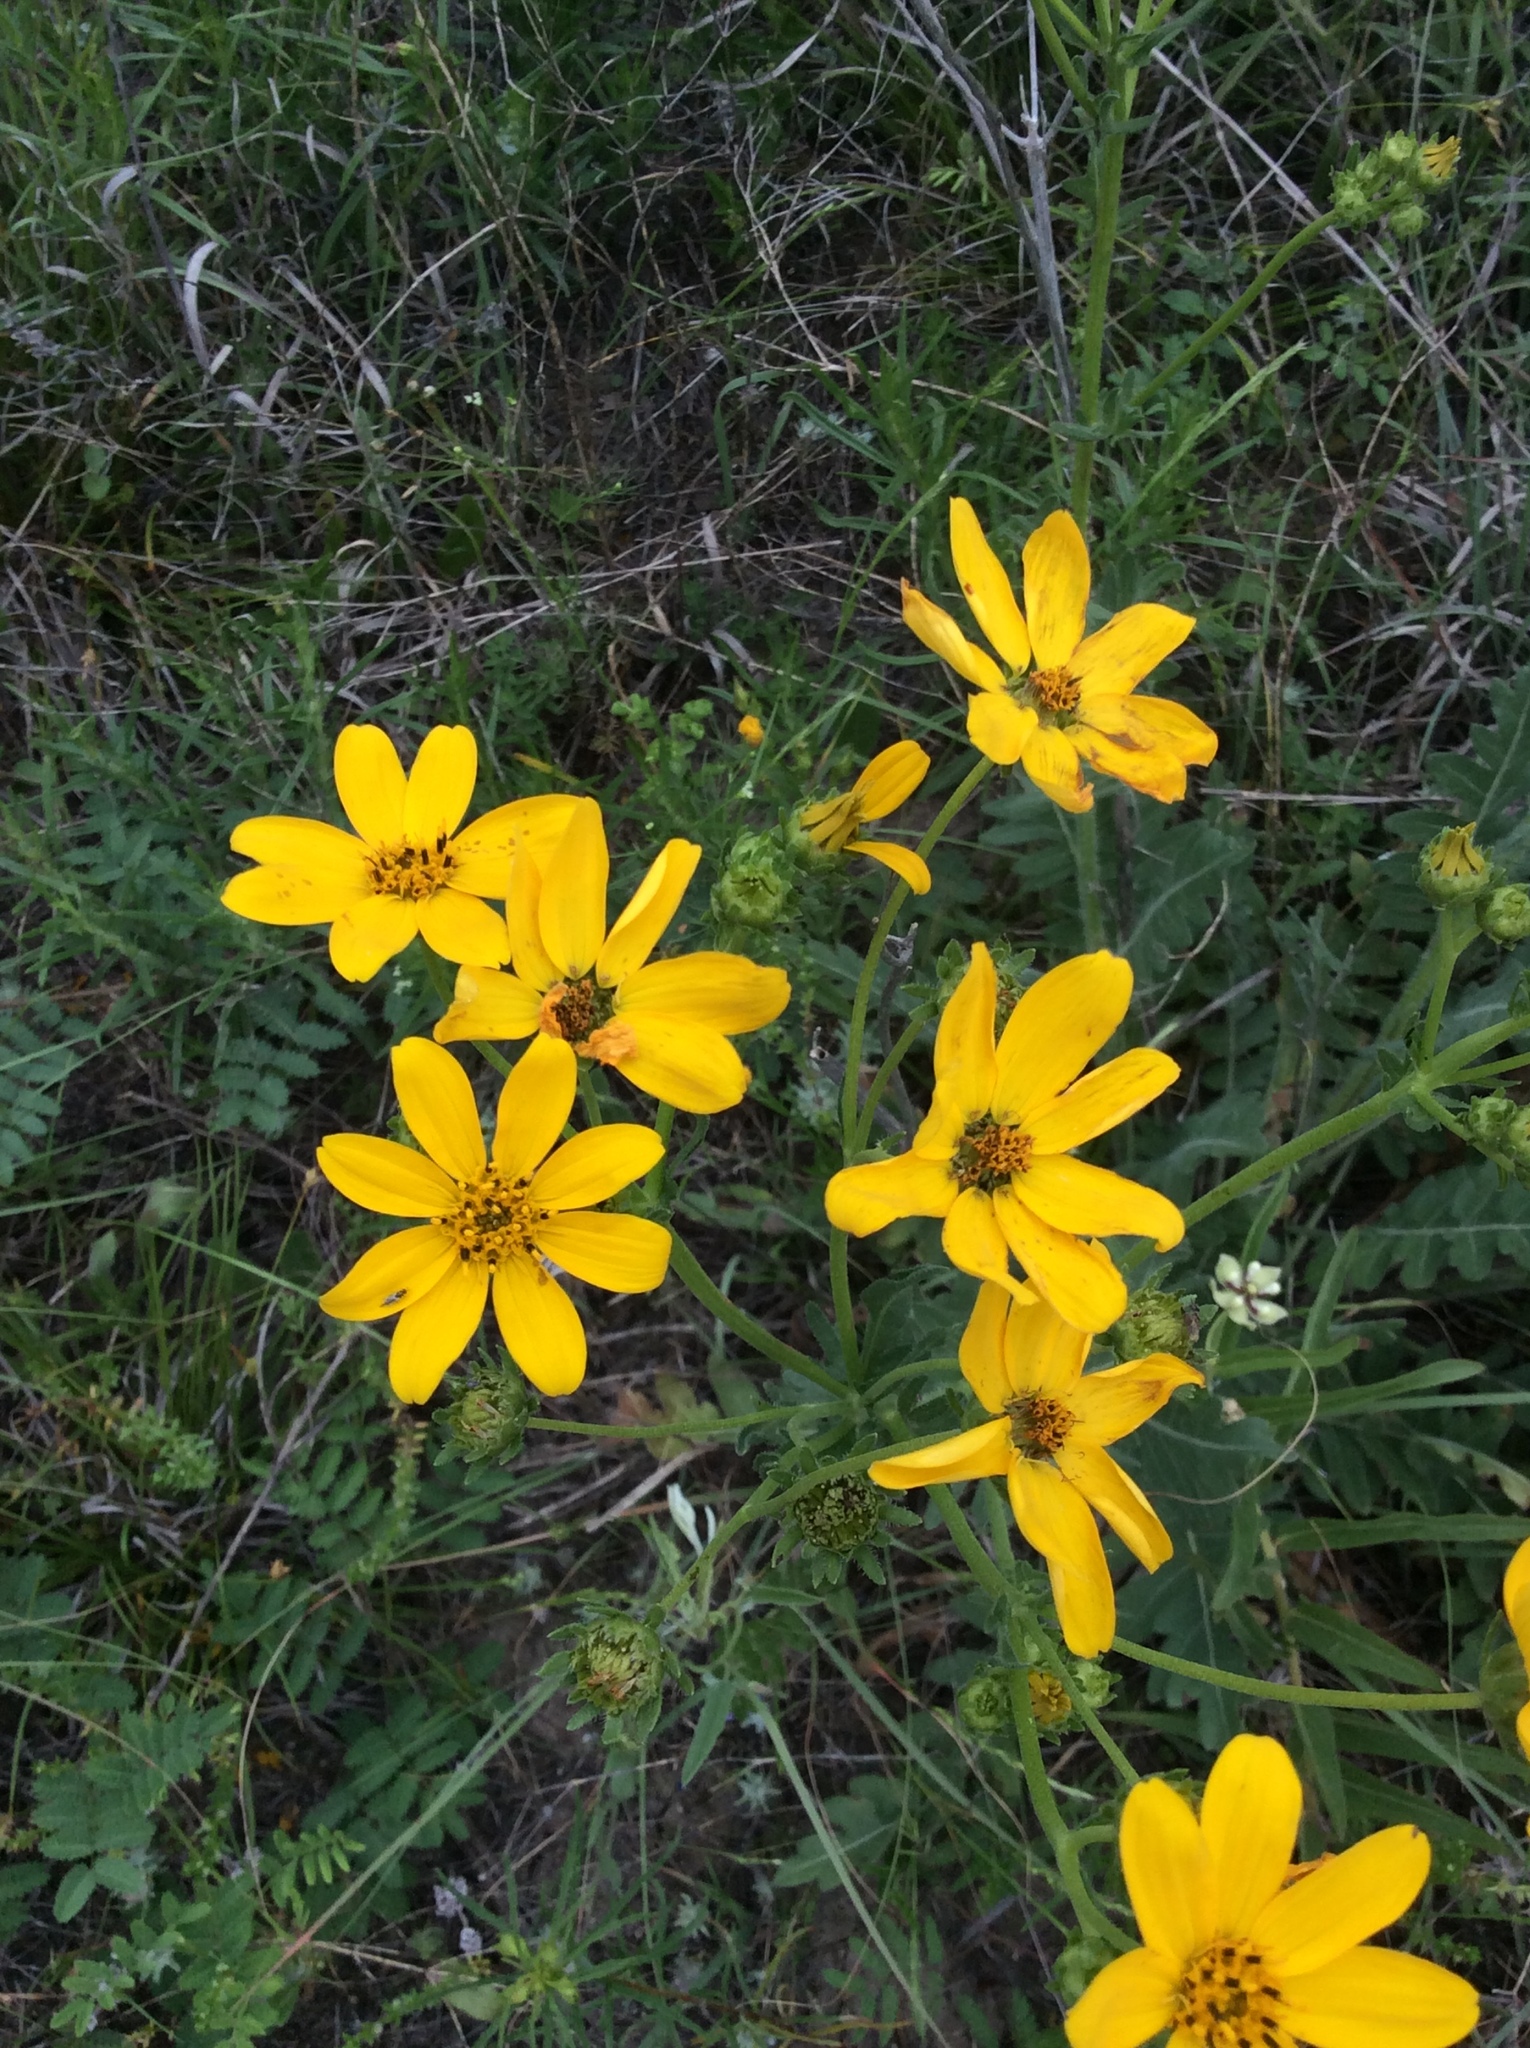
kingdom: Plantae
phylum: Tracheophyta
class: Magnoliopsida
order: Asterales
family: Asteraceae
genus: Engelmannia
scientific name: Engelmannia peristenia
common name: Engelmann's daisy
